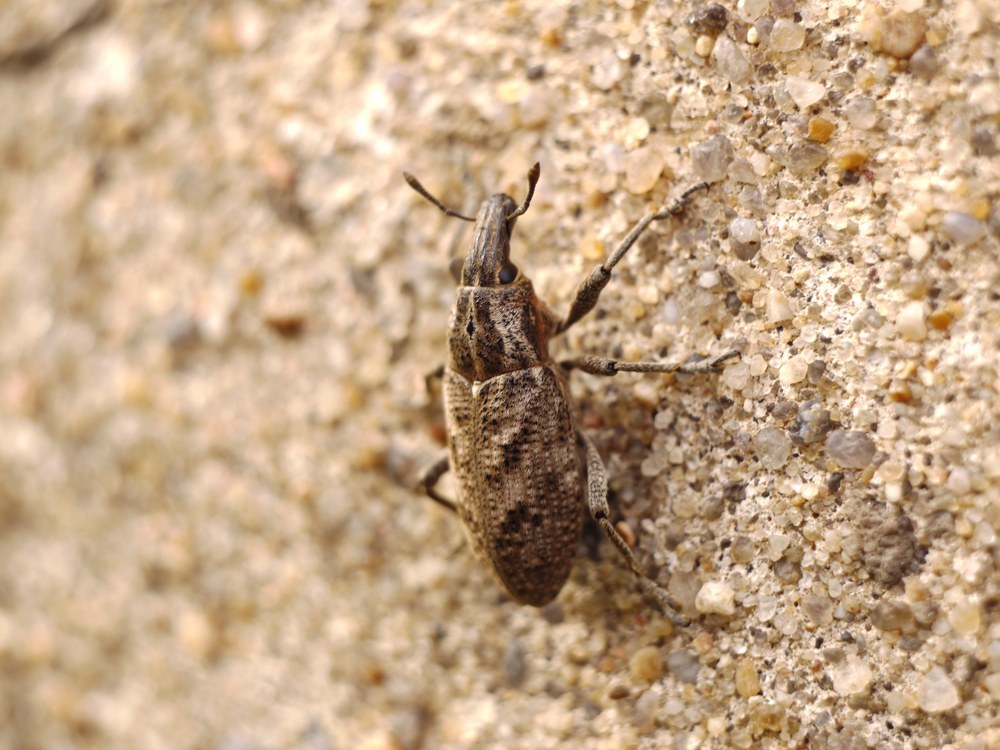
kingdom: Animalia
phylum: Arthropoda
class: Insecta
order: Coleoptera
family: Curculionidae
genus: Cleonis
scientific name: Cleonis pigra
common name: Large thistle weevil
